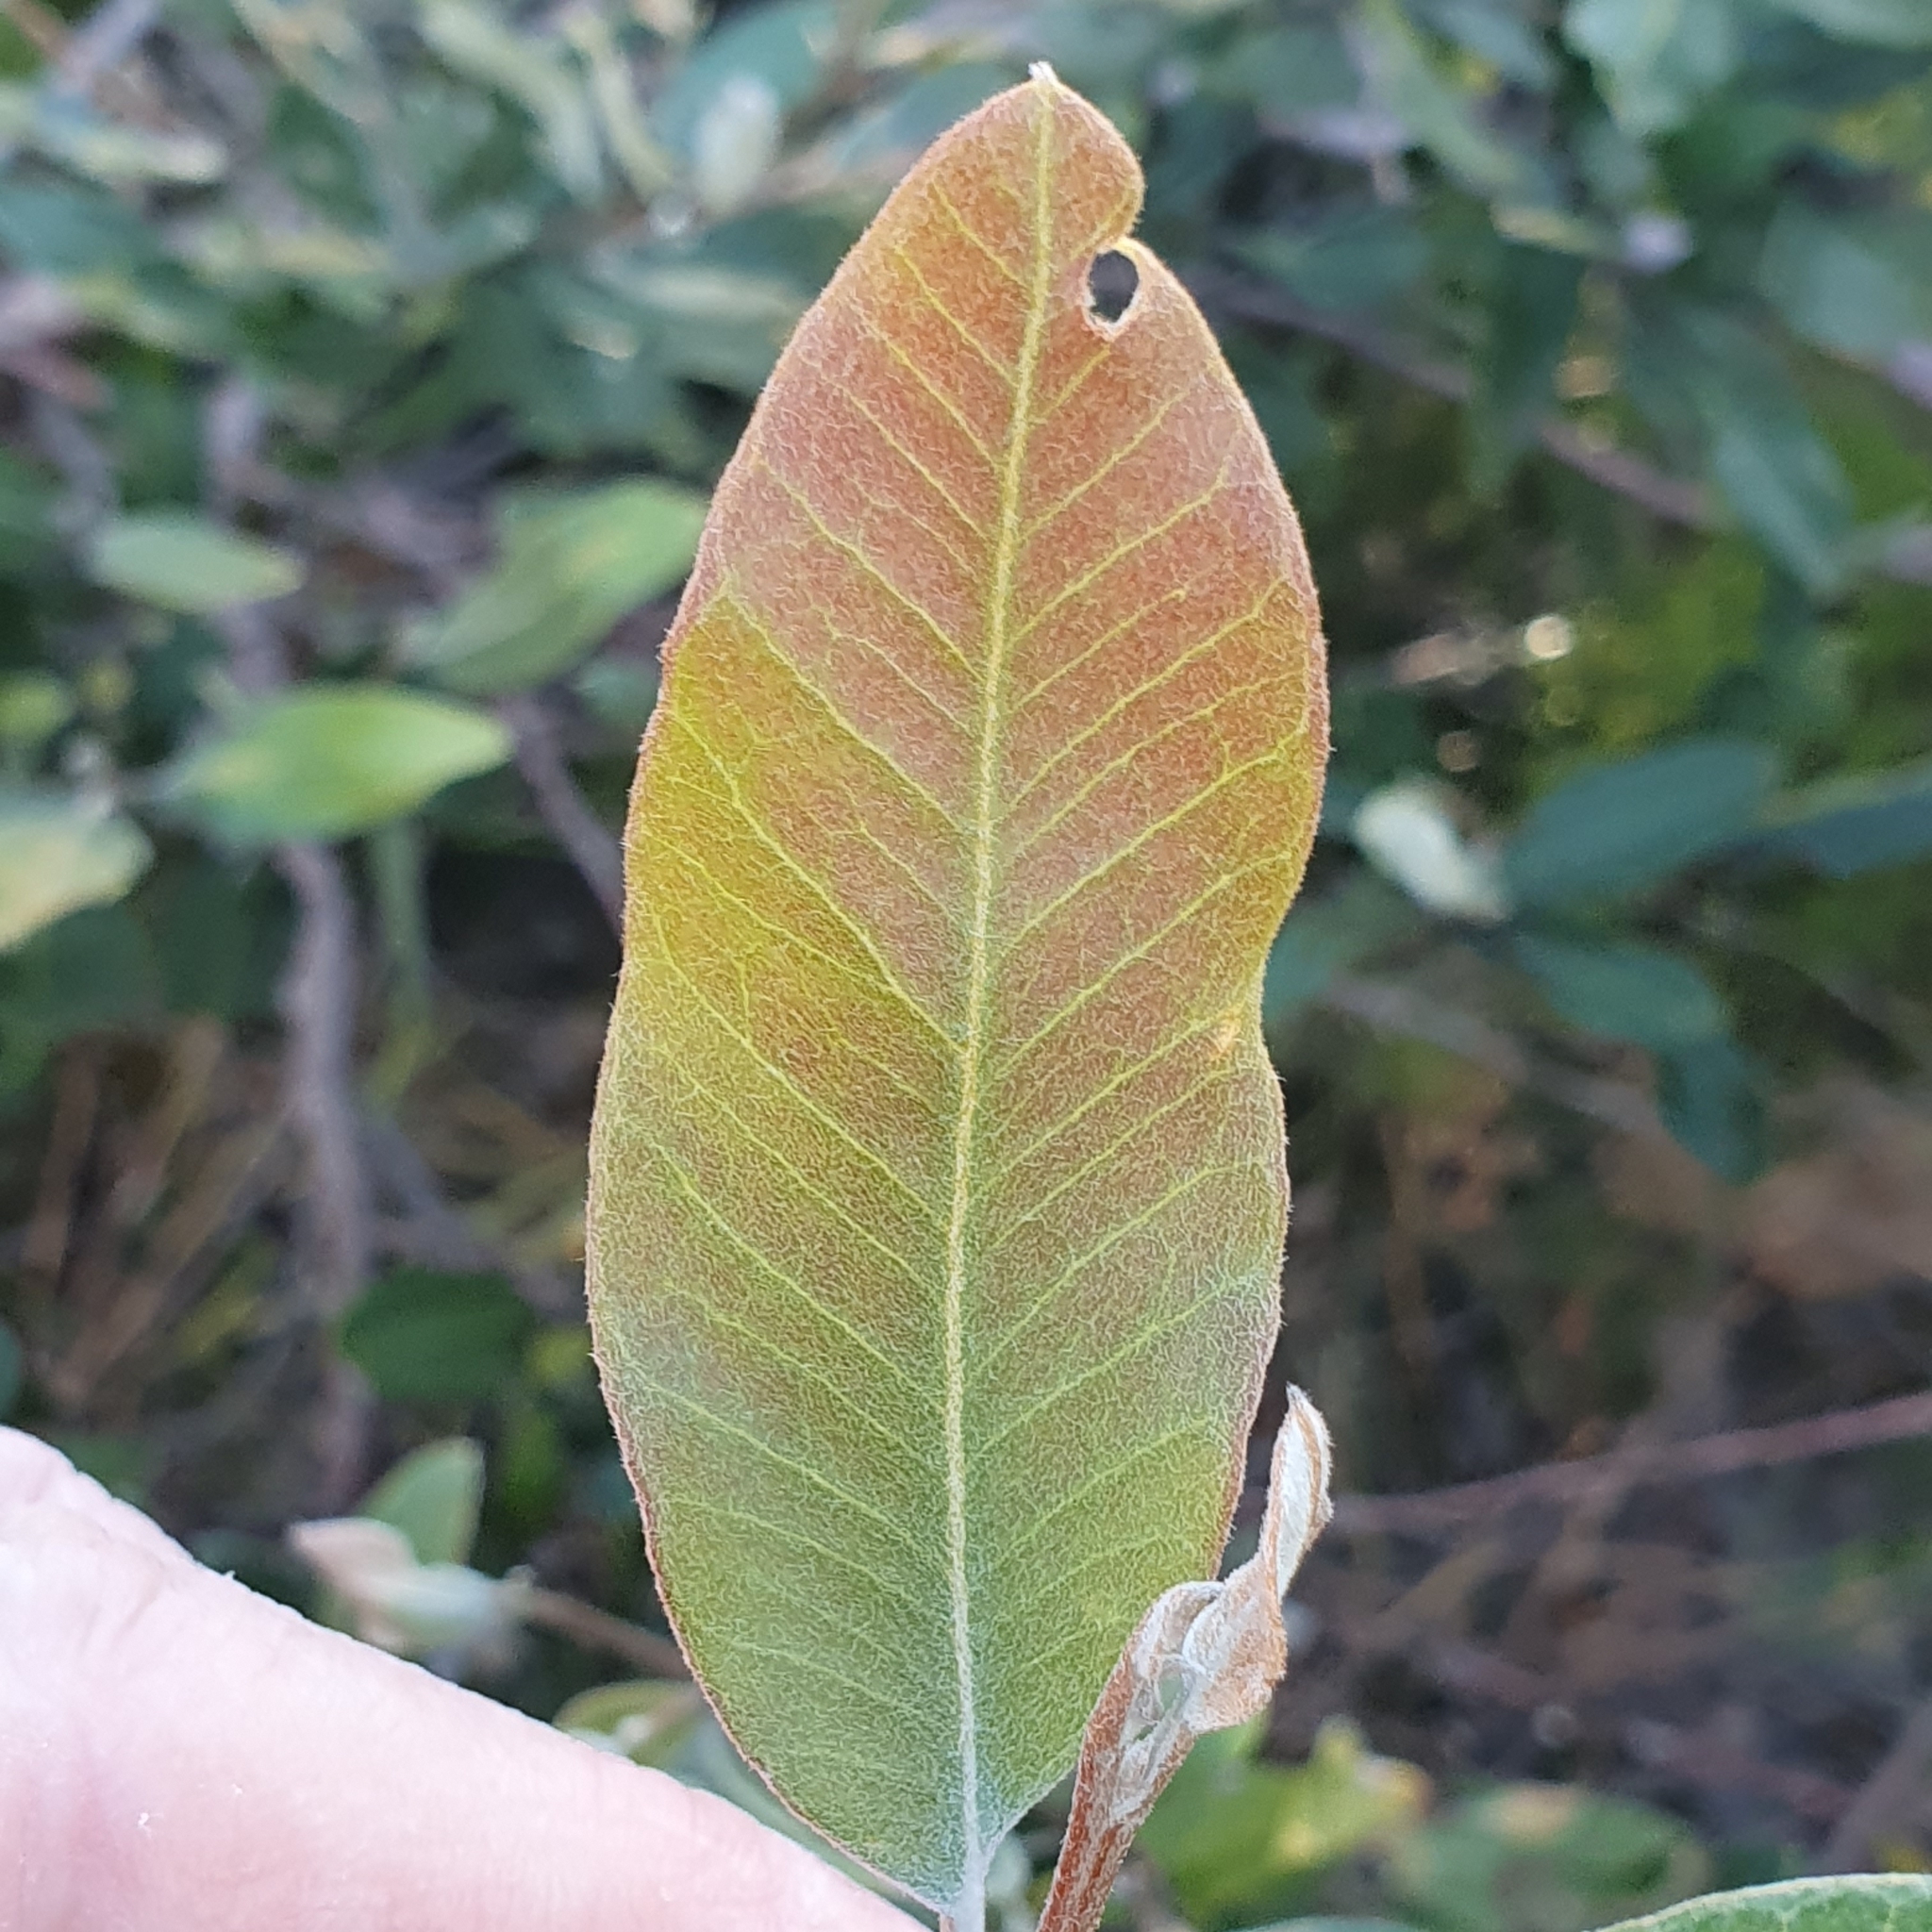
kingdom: Plantae
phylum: Tracheophyta
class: Magnoliopsida
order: Proteales
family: Proteaceae
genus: Grevillea
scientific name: Grevillea macleayana
